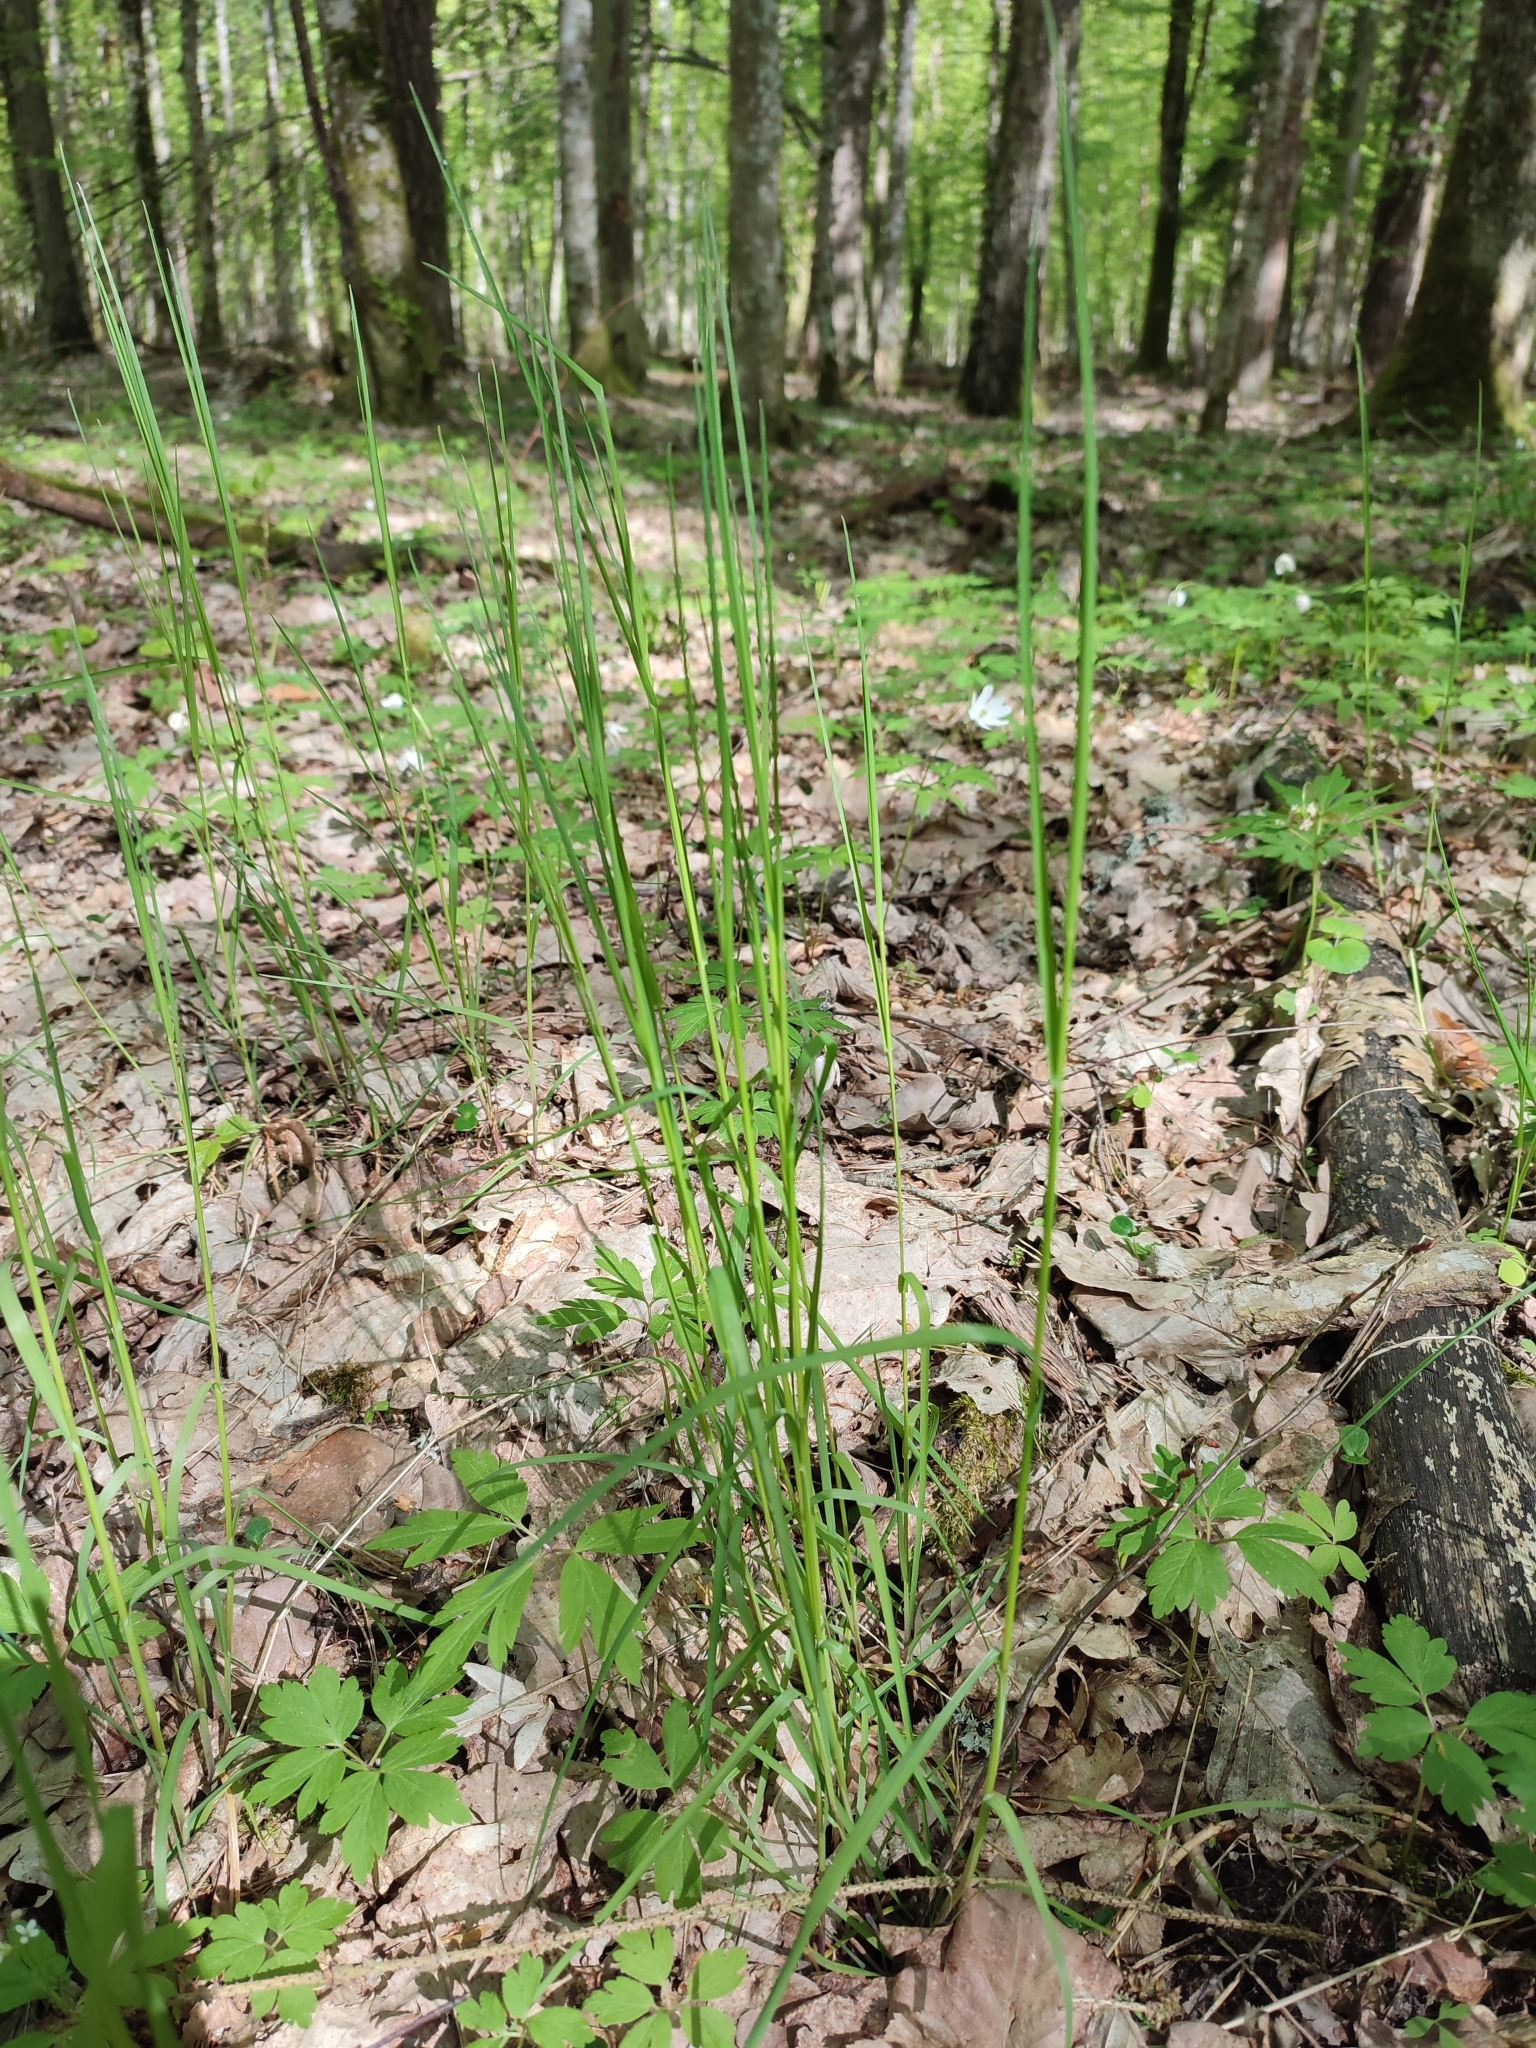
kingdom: Plantae
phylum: Tracheophyta
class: Liliopsida
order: Poales
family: Poaceae
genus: Poa
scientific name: Poa nemoralis
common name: Wood bluegrass
